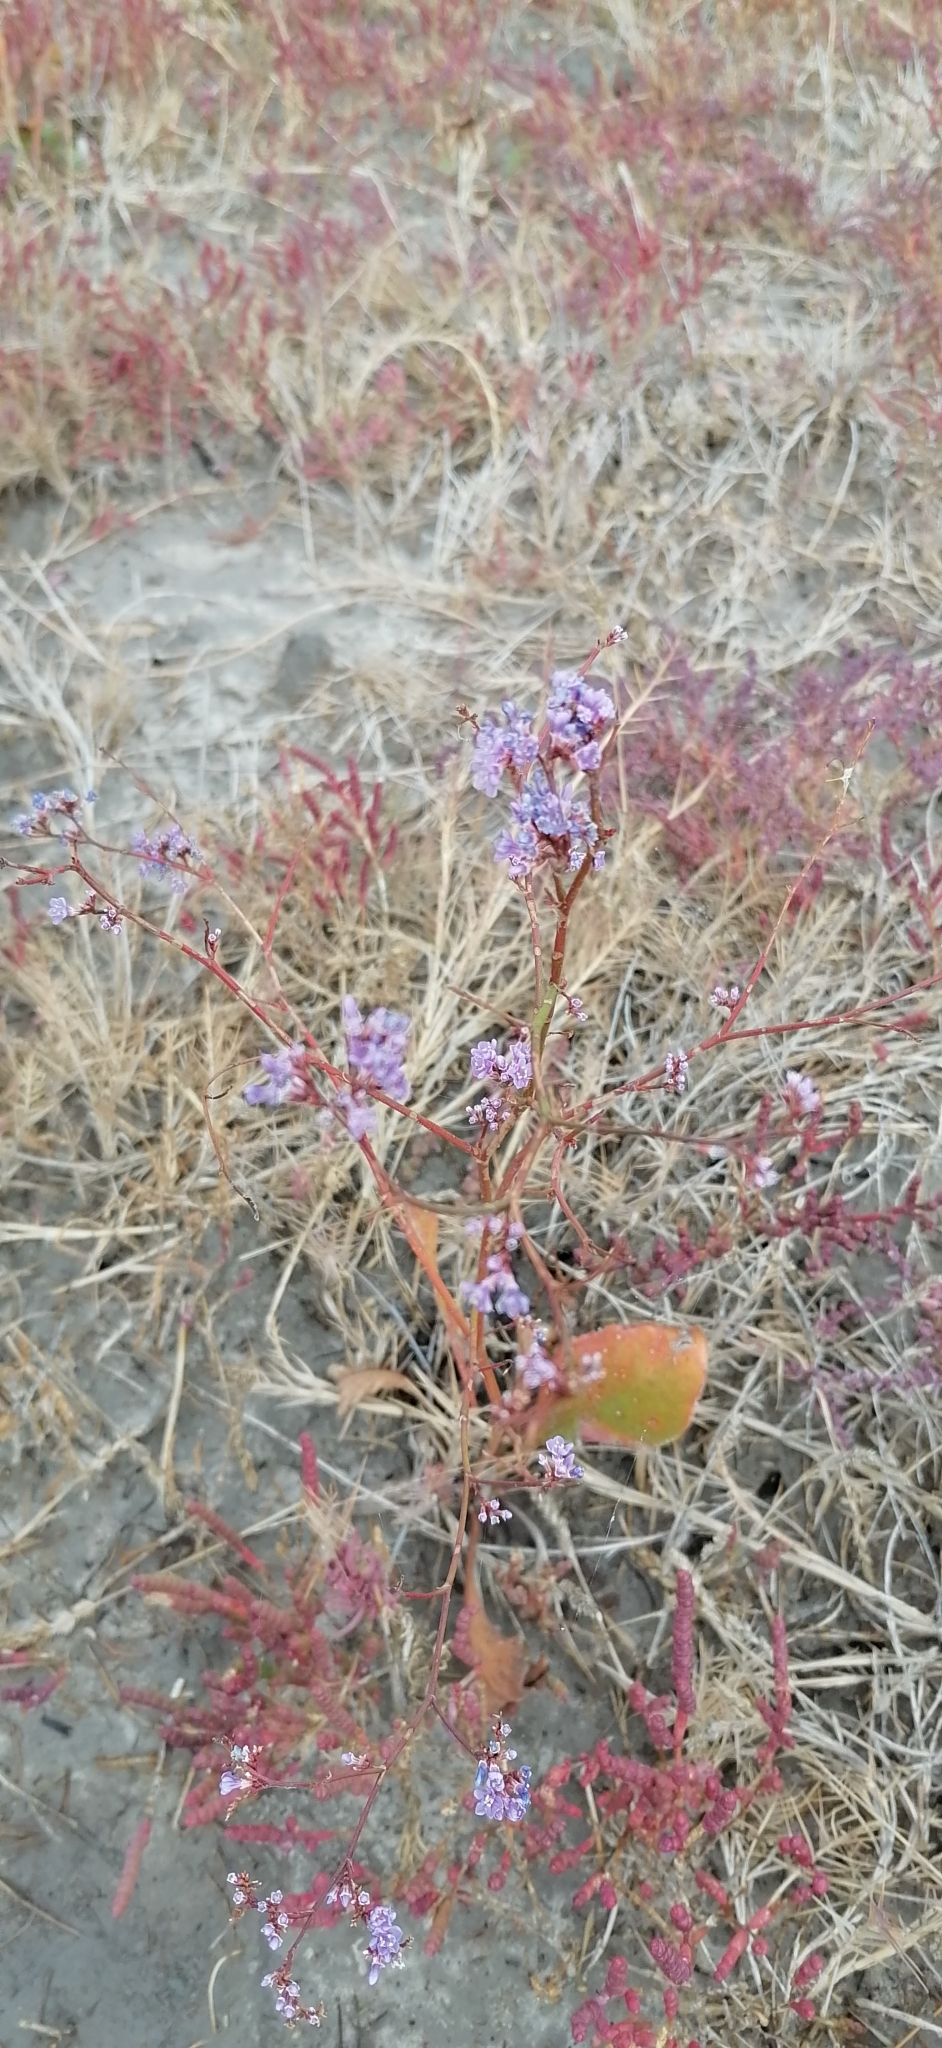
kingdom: Plantae
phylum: Tracheophyta
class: Magnoliopsida
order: Caryophyllales
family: Plumbaginaceae
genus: Limonium
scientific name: Limonium gmelini
